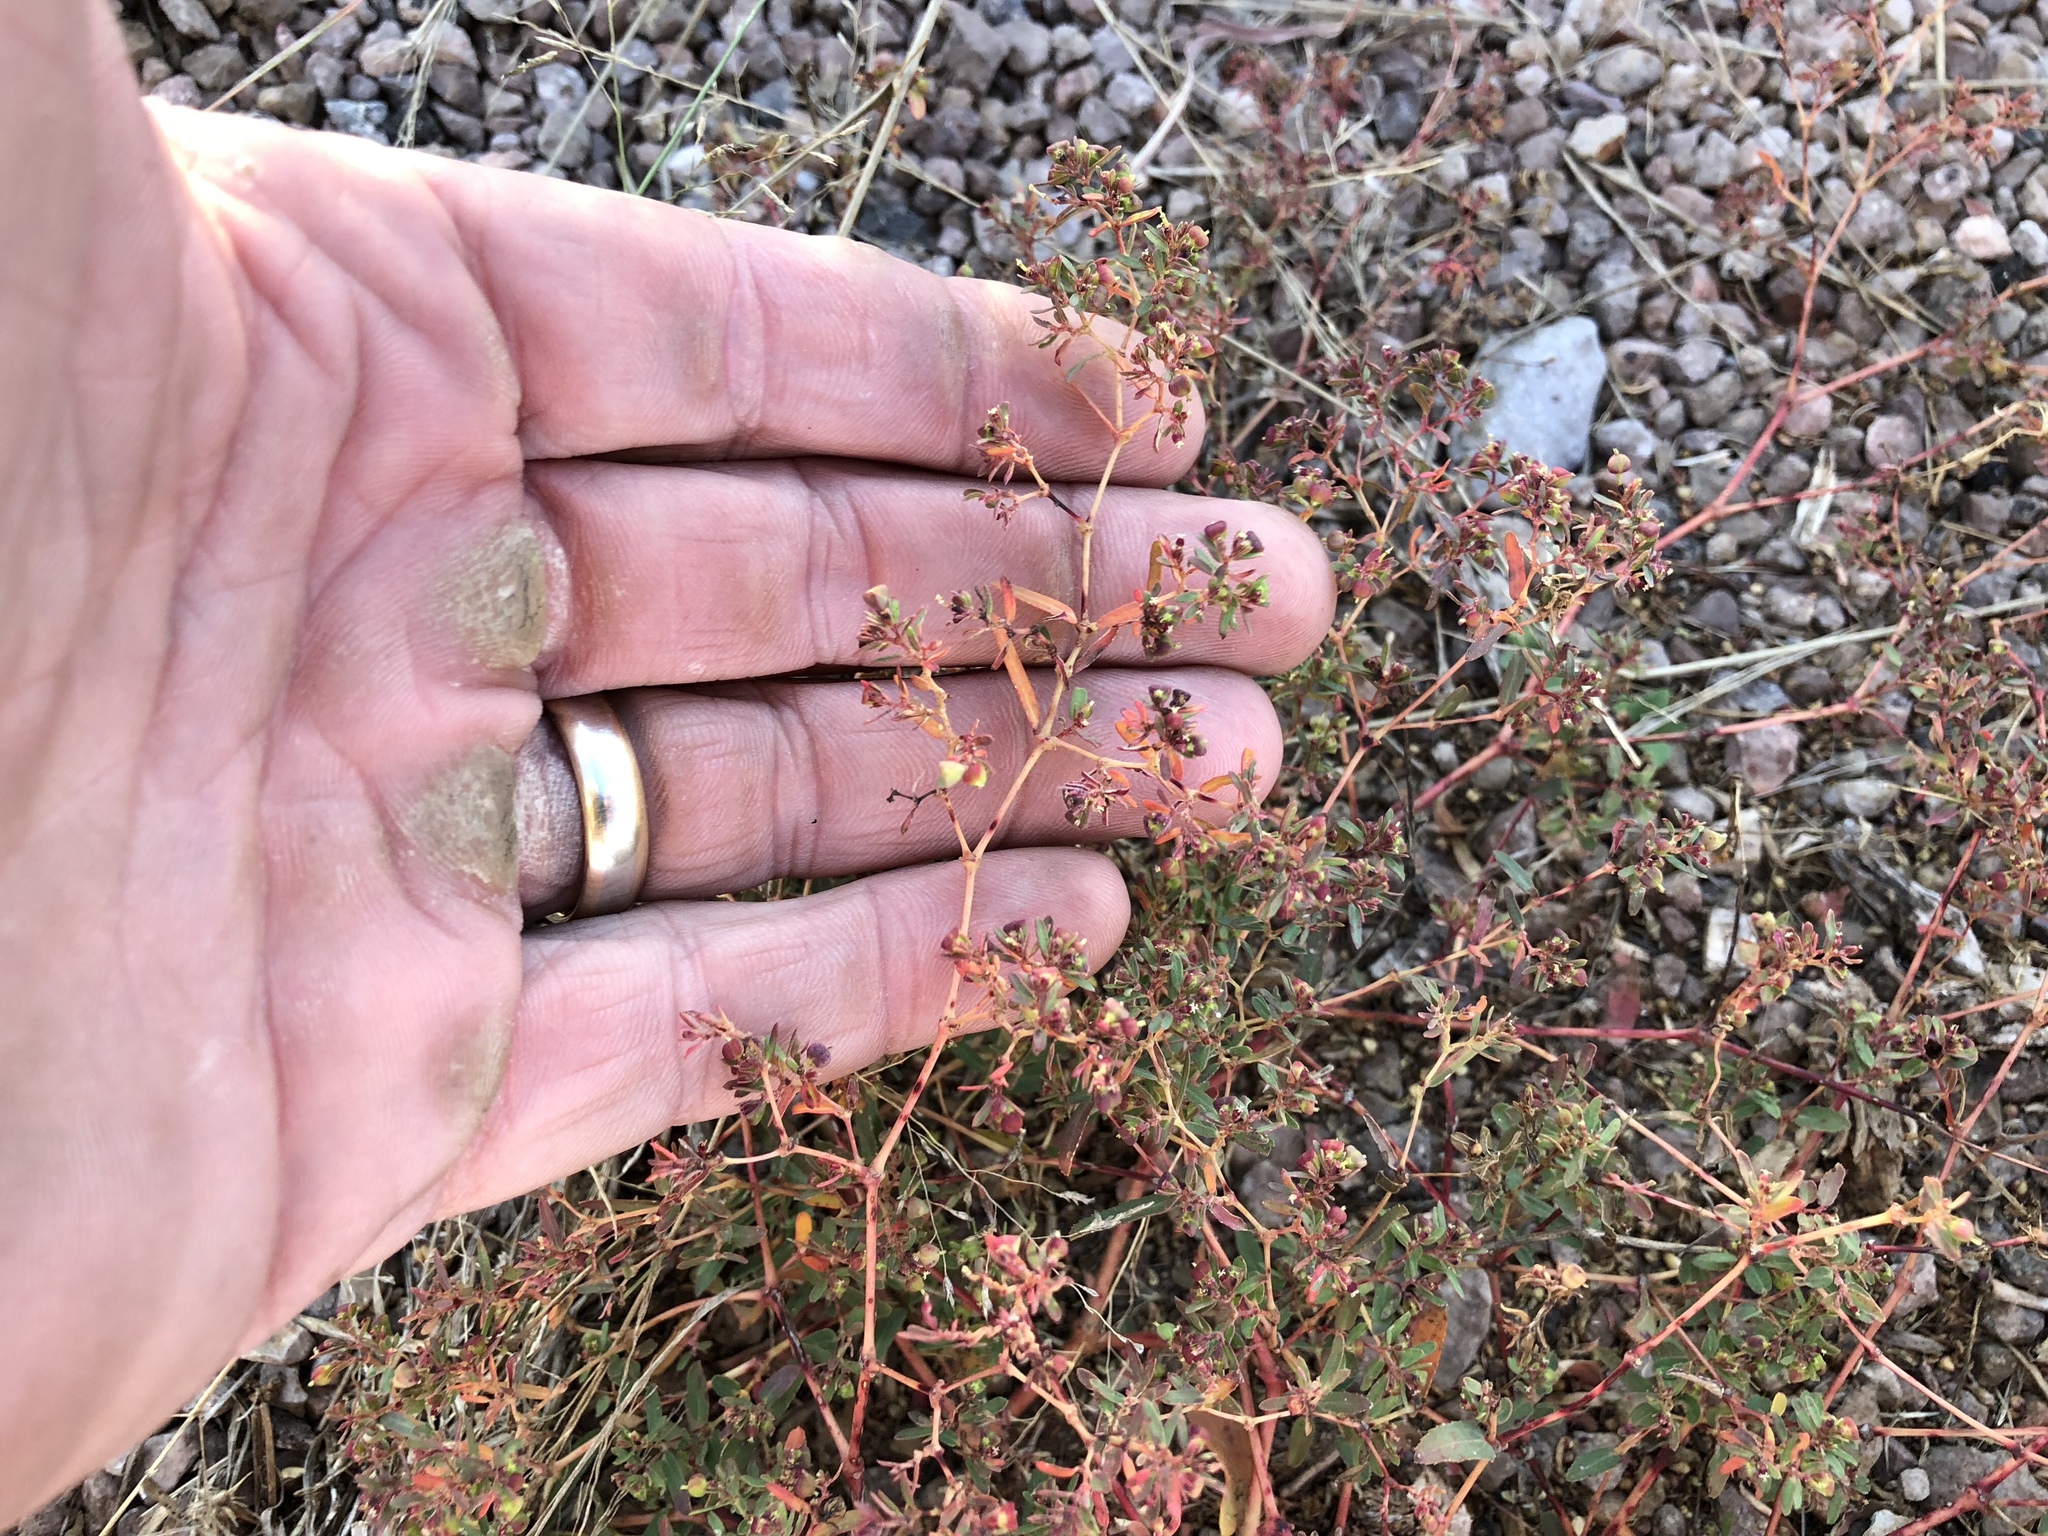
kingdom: Plantae
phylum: Tracheophyta
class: Magnoliopsida
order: Malpighiales
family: Euphorbiaceae
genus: Euphorbia
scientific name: Euphorbia hyssopifolia
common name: Hyssopleaf sandmat
